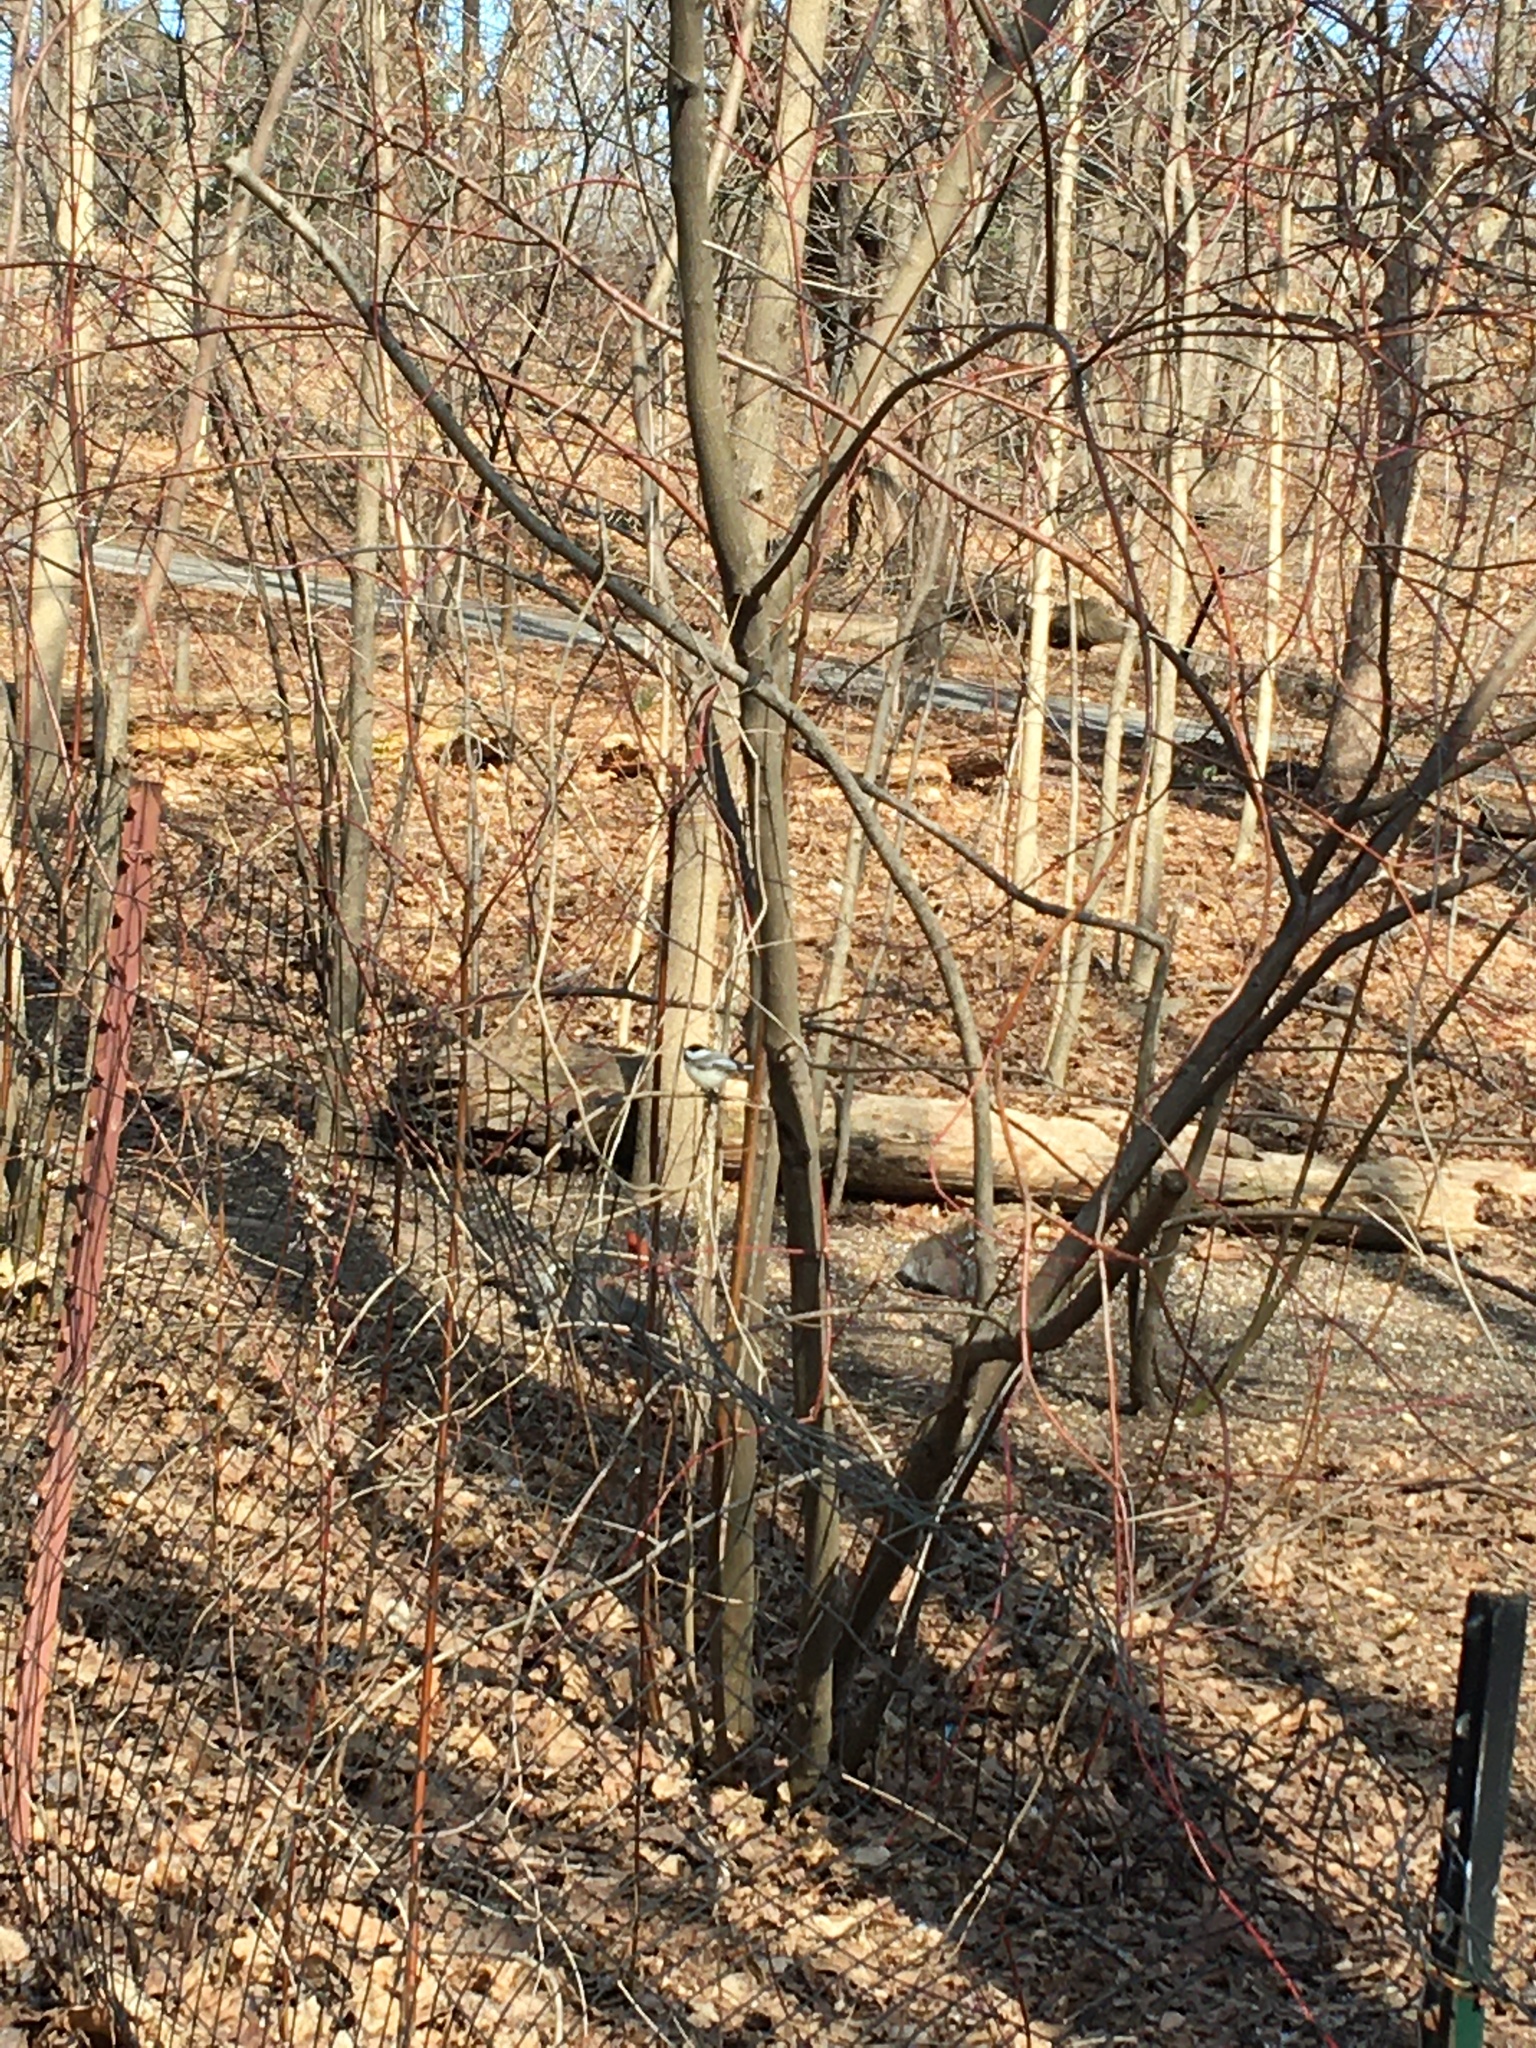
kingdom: Animalia
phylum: Chordata
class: Aves
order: Passeriformes
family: Paridae
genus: Poecile
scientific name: Poecile atricapillus
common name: Black-capped chickadee
